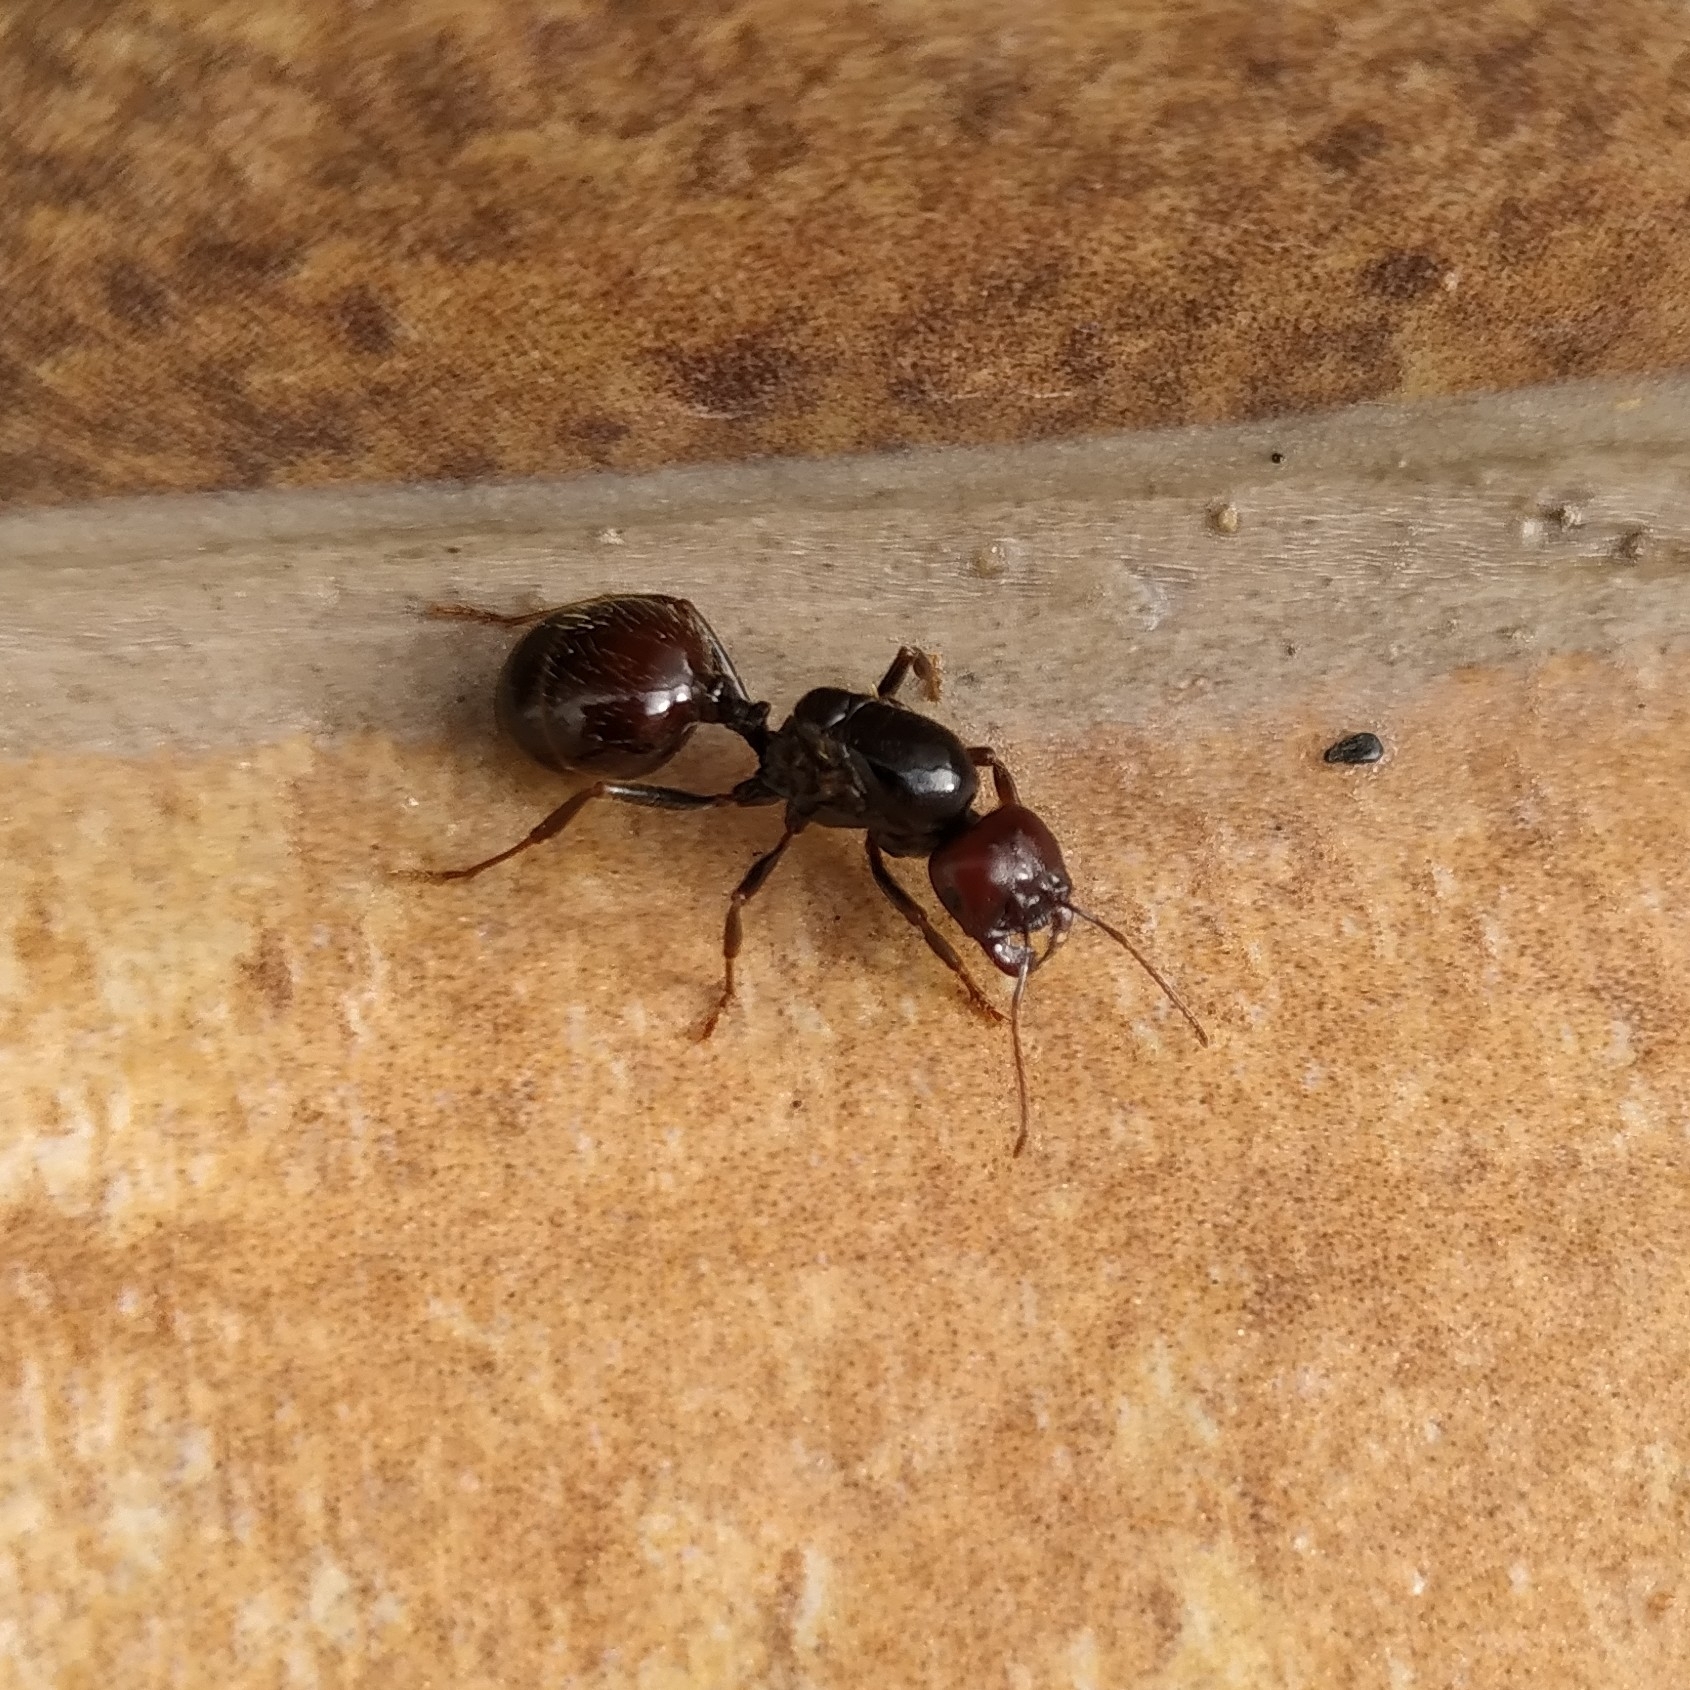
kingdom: Animalia
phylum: Arthropoda
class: Insecta
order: Hymenoptera
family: Formicidae
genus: Messor
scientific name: Messor barbarus
